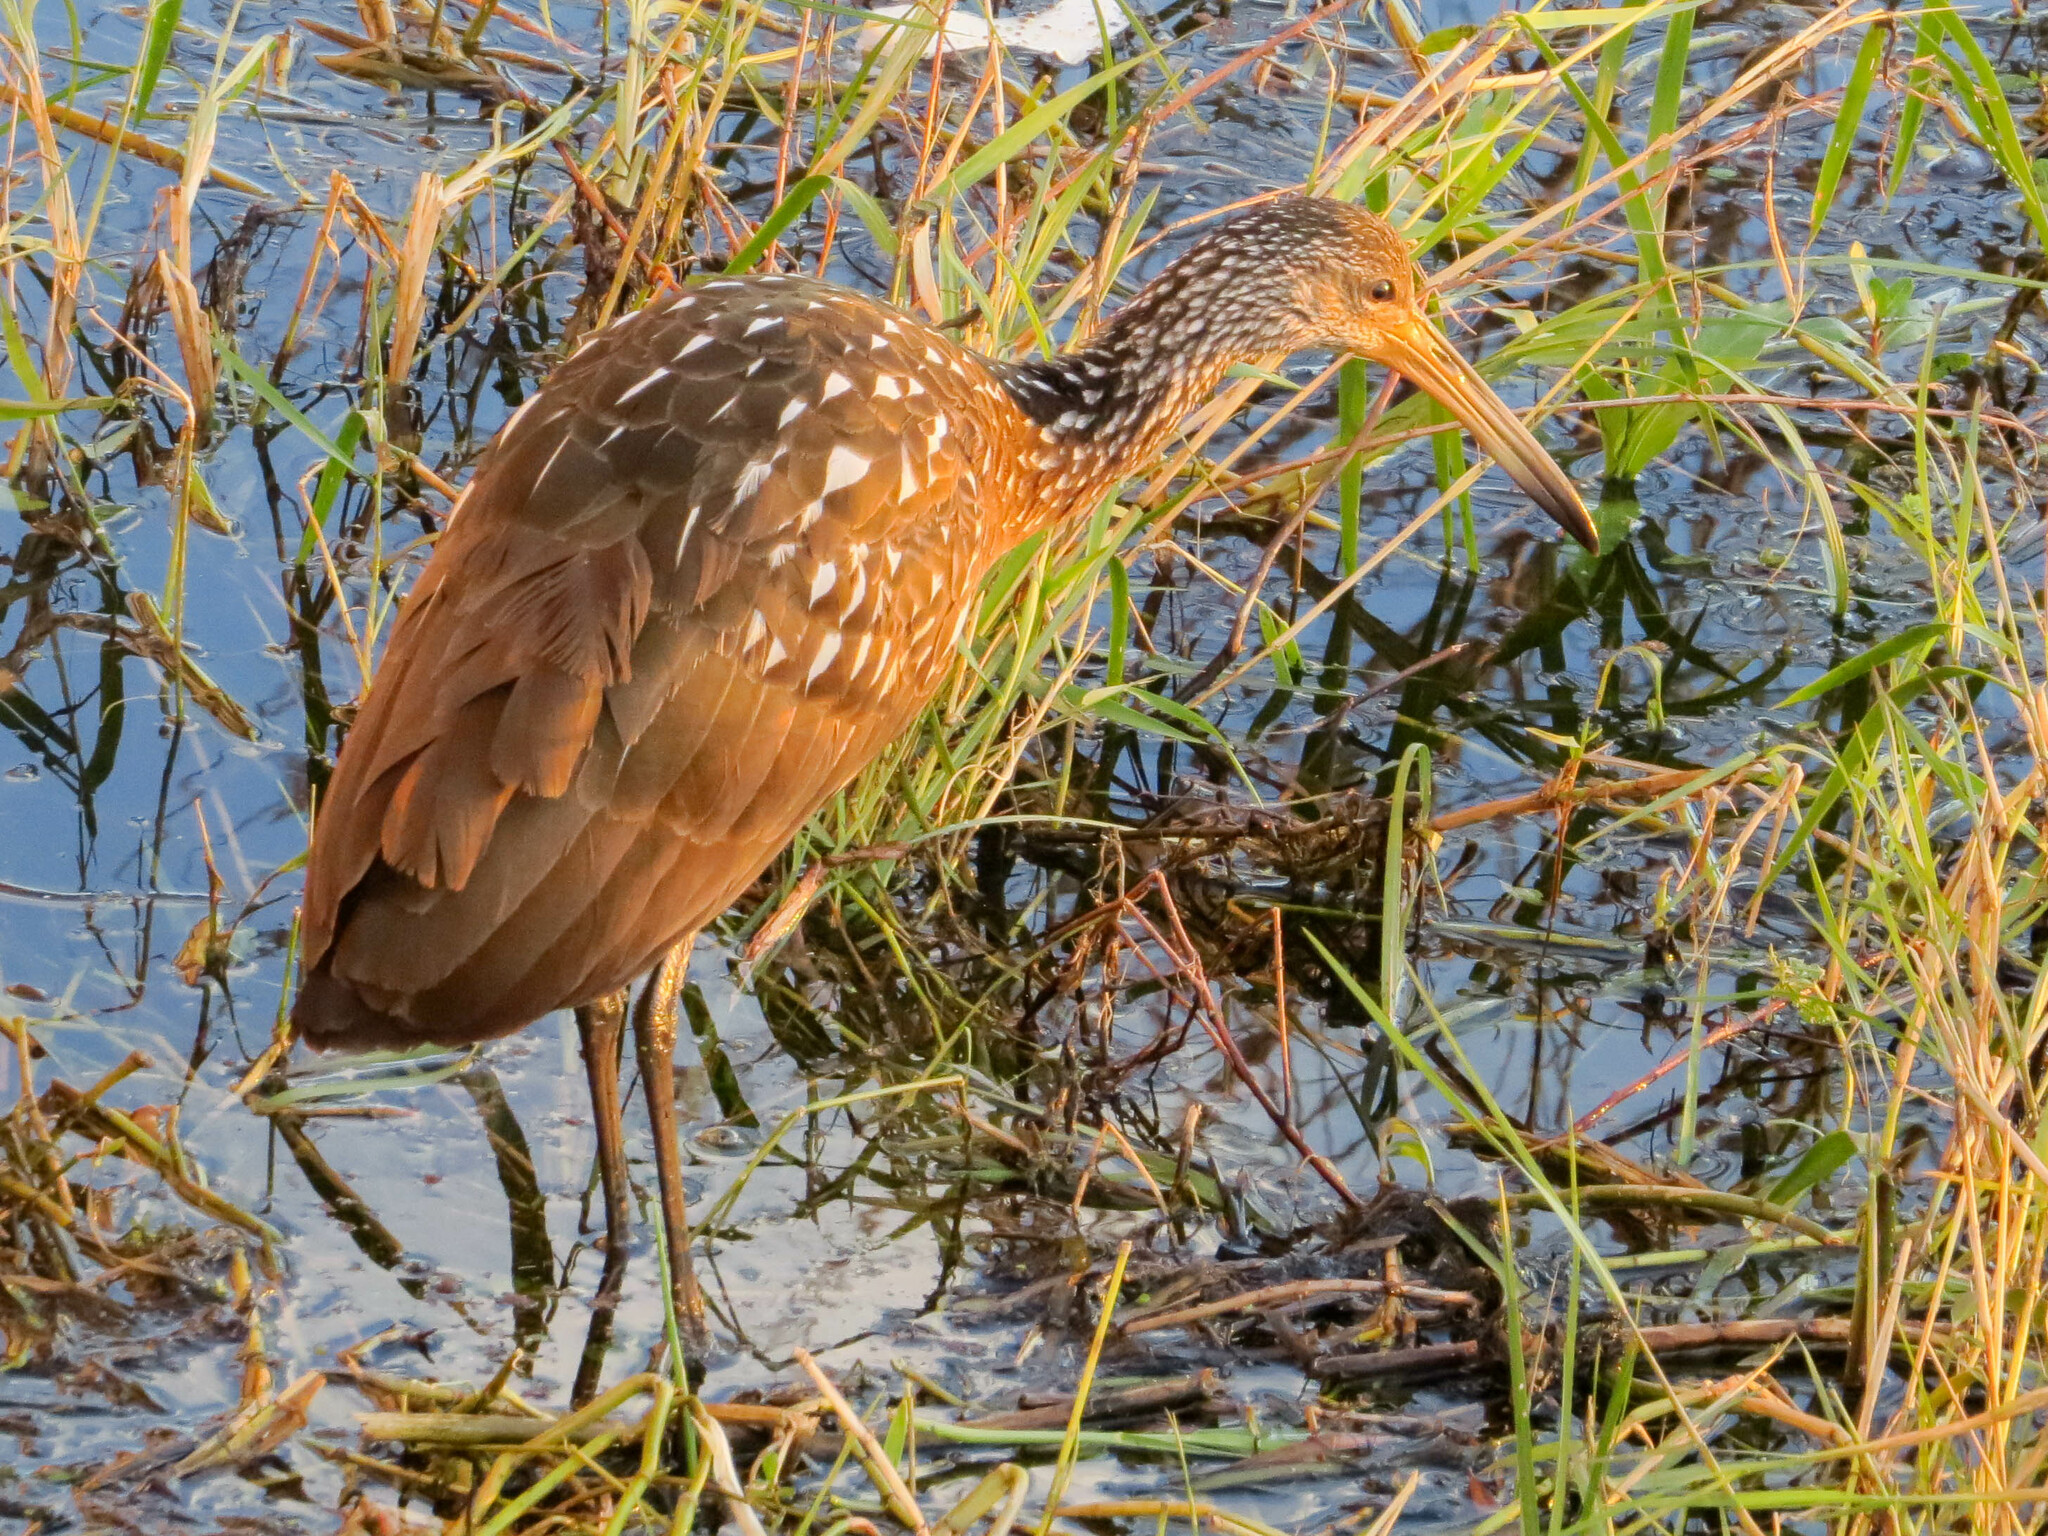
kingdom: Animalia
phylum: Chordata
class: Aves
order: Gruiformes
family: Aramidae
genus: Aramus
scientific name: Aramus guarauna
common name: Limpkin
